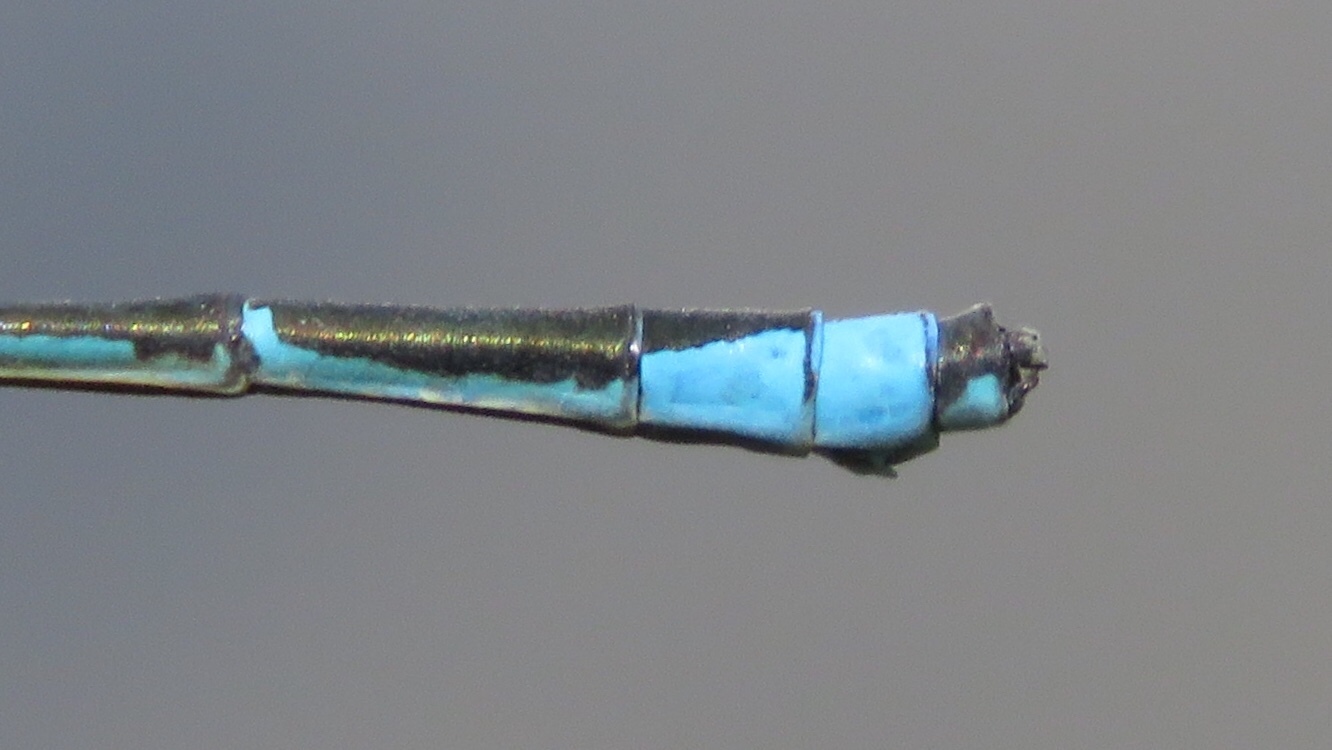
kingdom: Animalia
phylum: Arthropoda
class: Insecta
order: Odonata
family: Coenagrionidae
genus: Enallagma
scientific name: Enallagma exsulans
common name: Stream bluet
